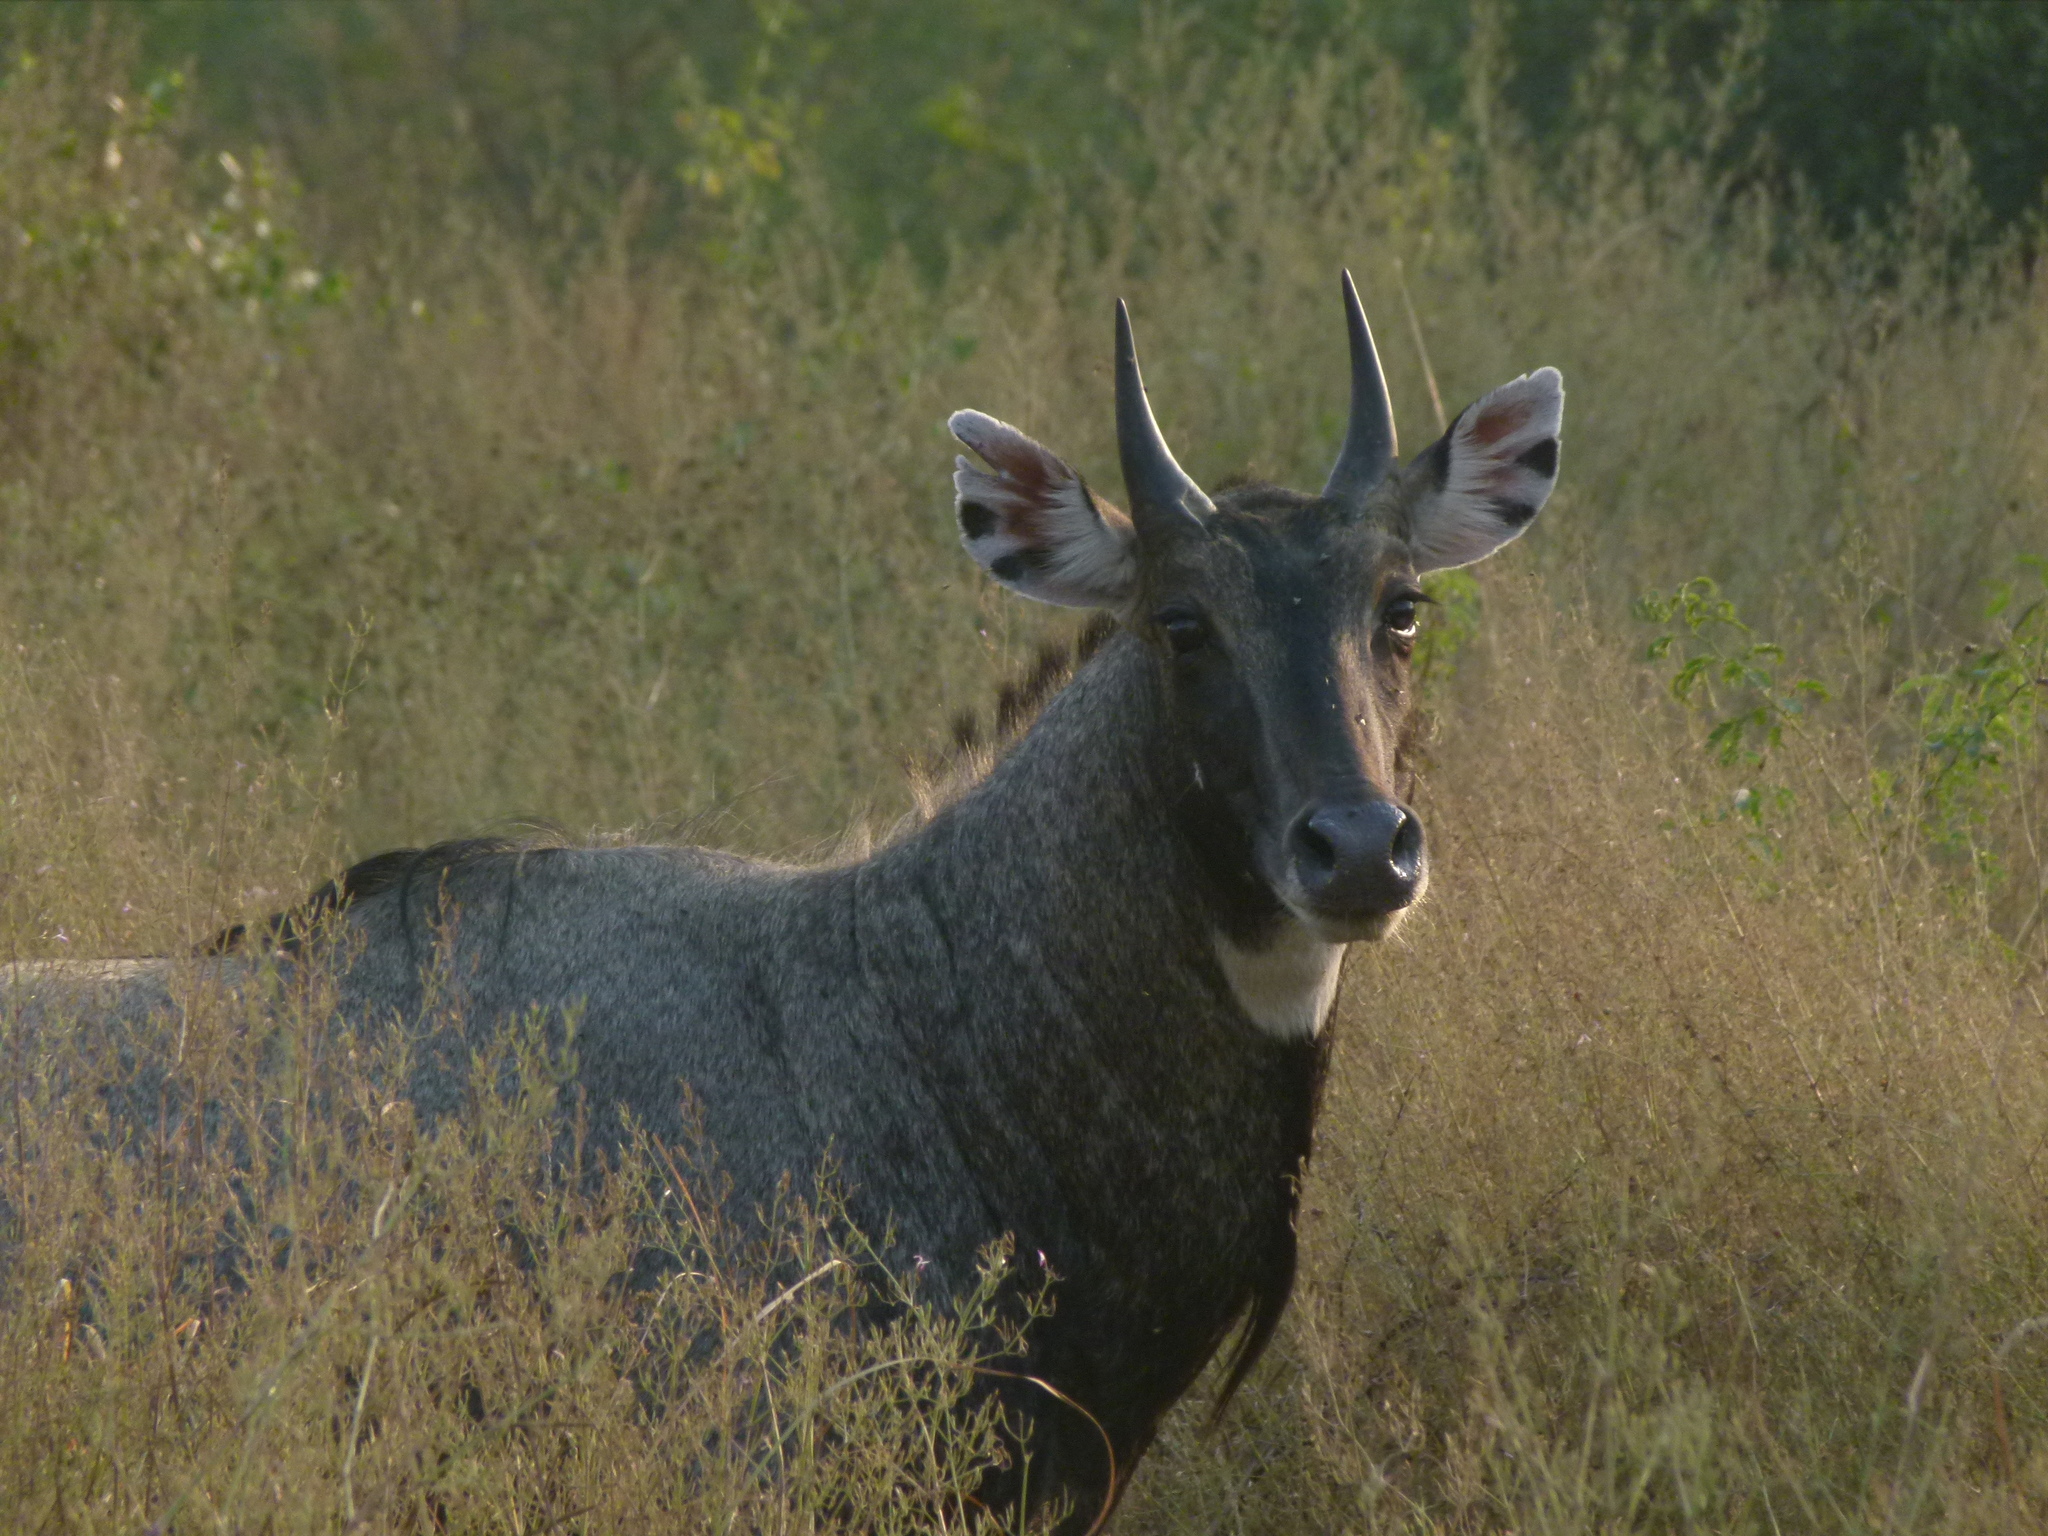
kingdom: Animalia
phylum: Chordata
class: Mammalia
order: Artiodactyla
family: Bovidae
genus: Boselaphus
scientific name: Boselaphus tragocamelus
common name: Nilgai
